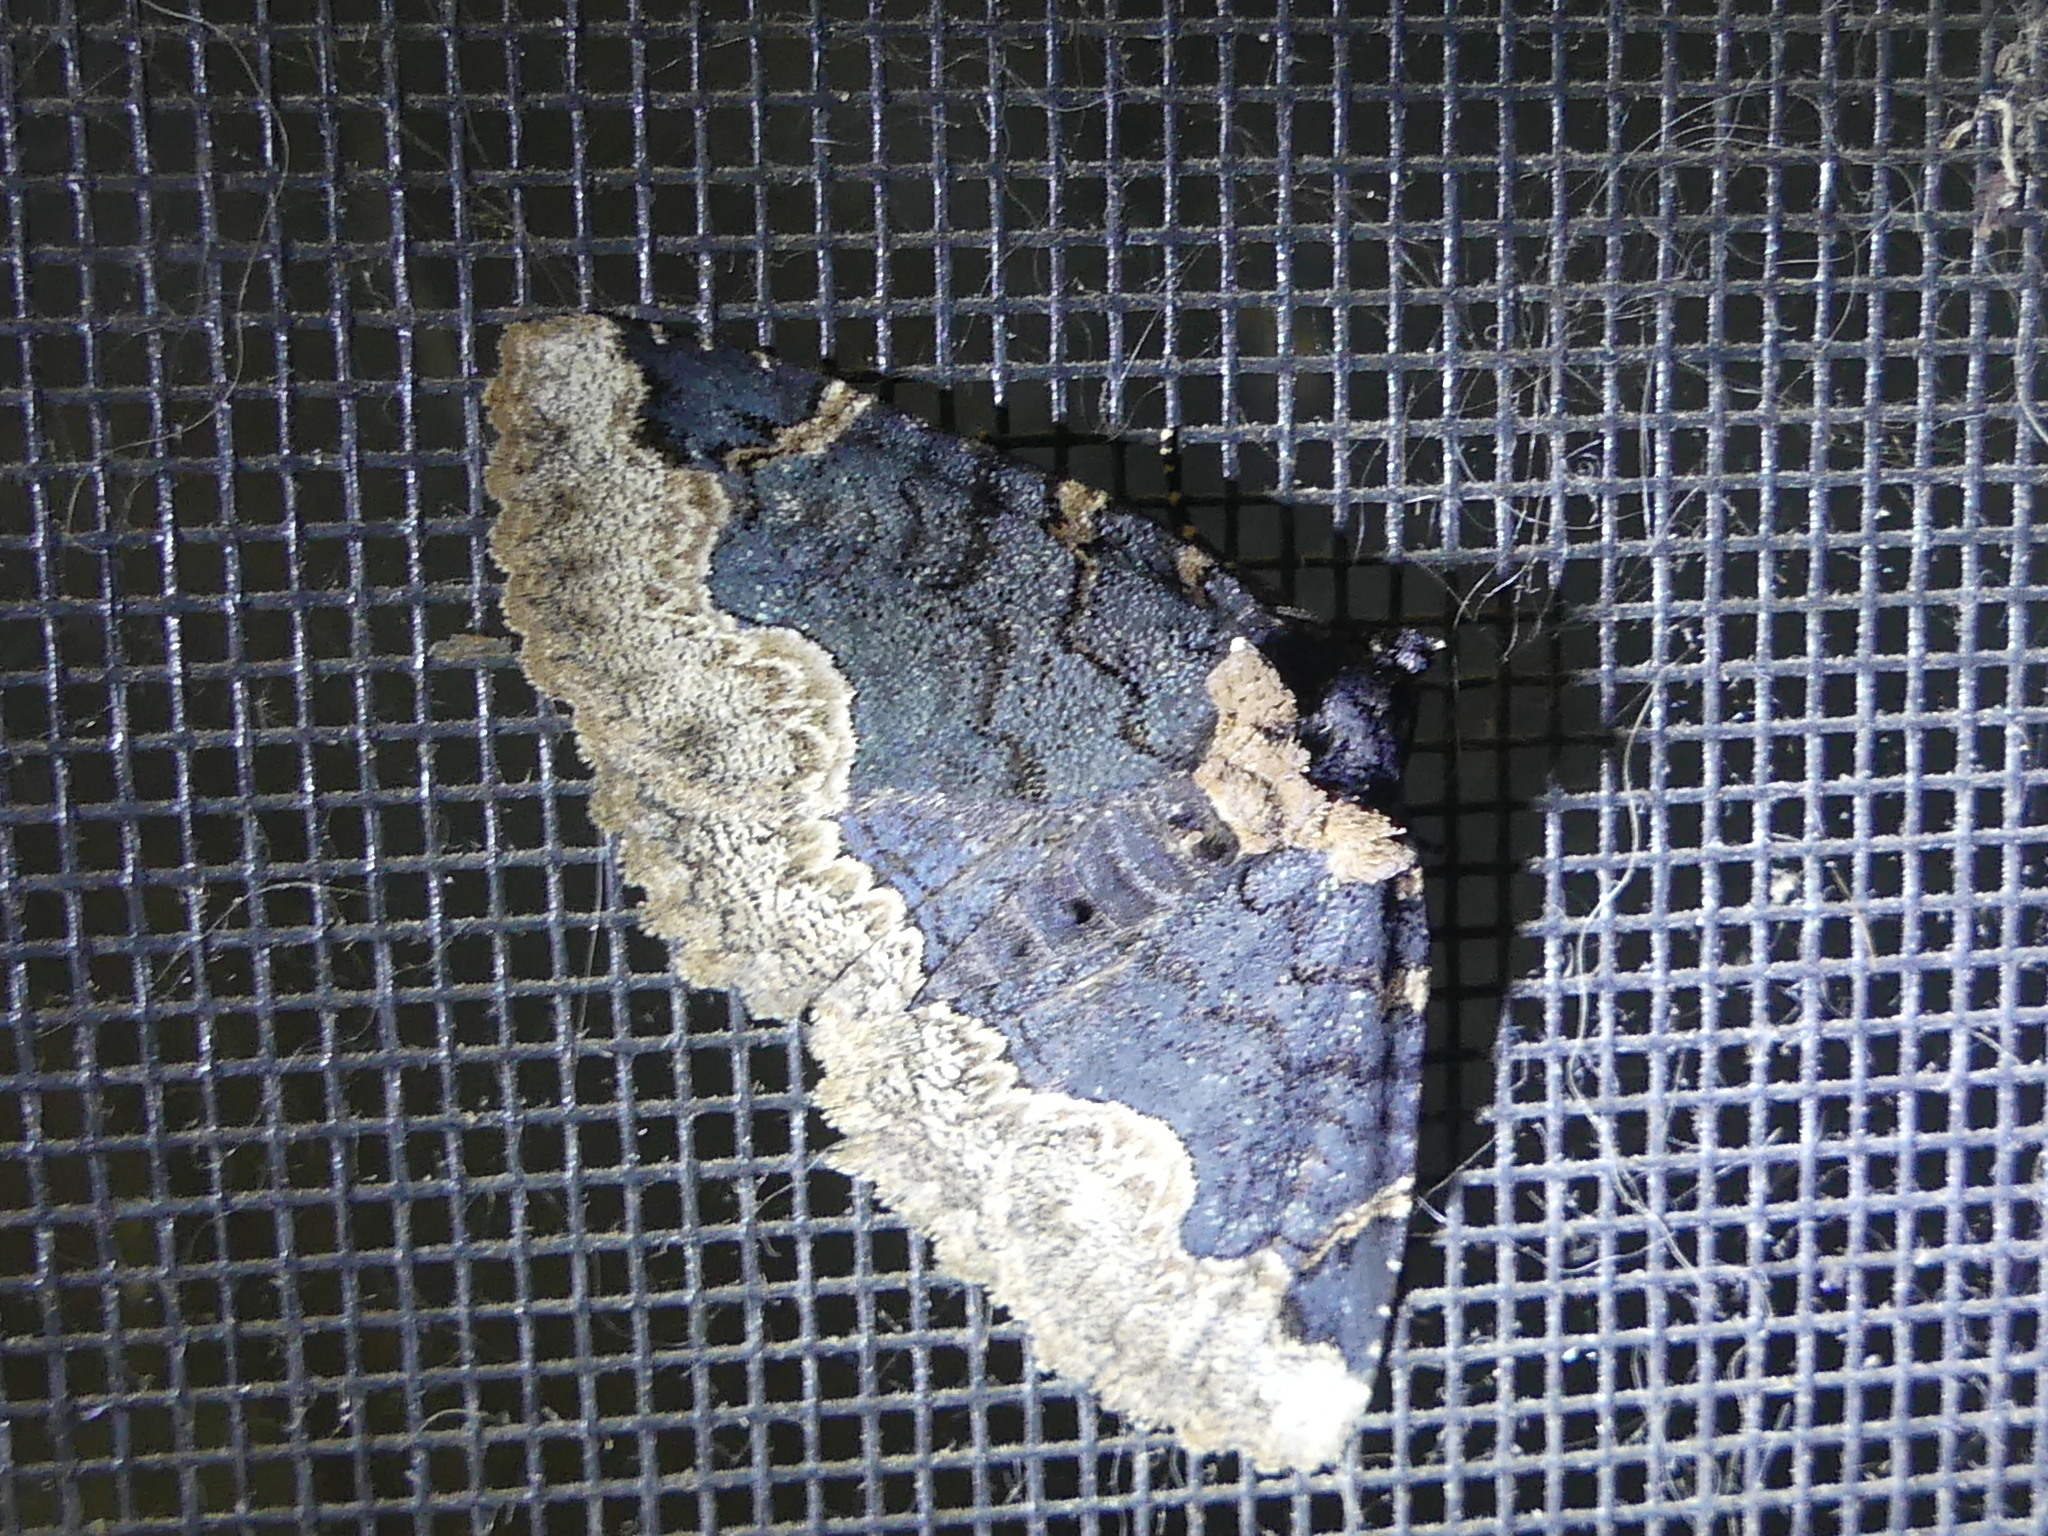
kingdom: Animalia
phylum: Arthropoda
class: Insecta
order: Lepidoptera
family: Erebidae
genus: Zale
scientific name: Zale horrida
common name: Horrid zale moth
